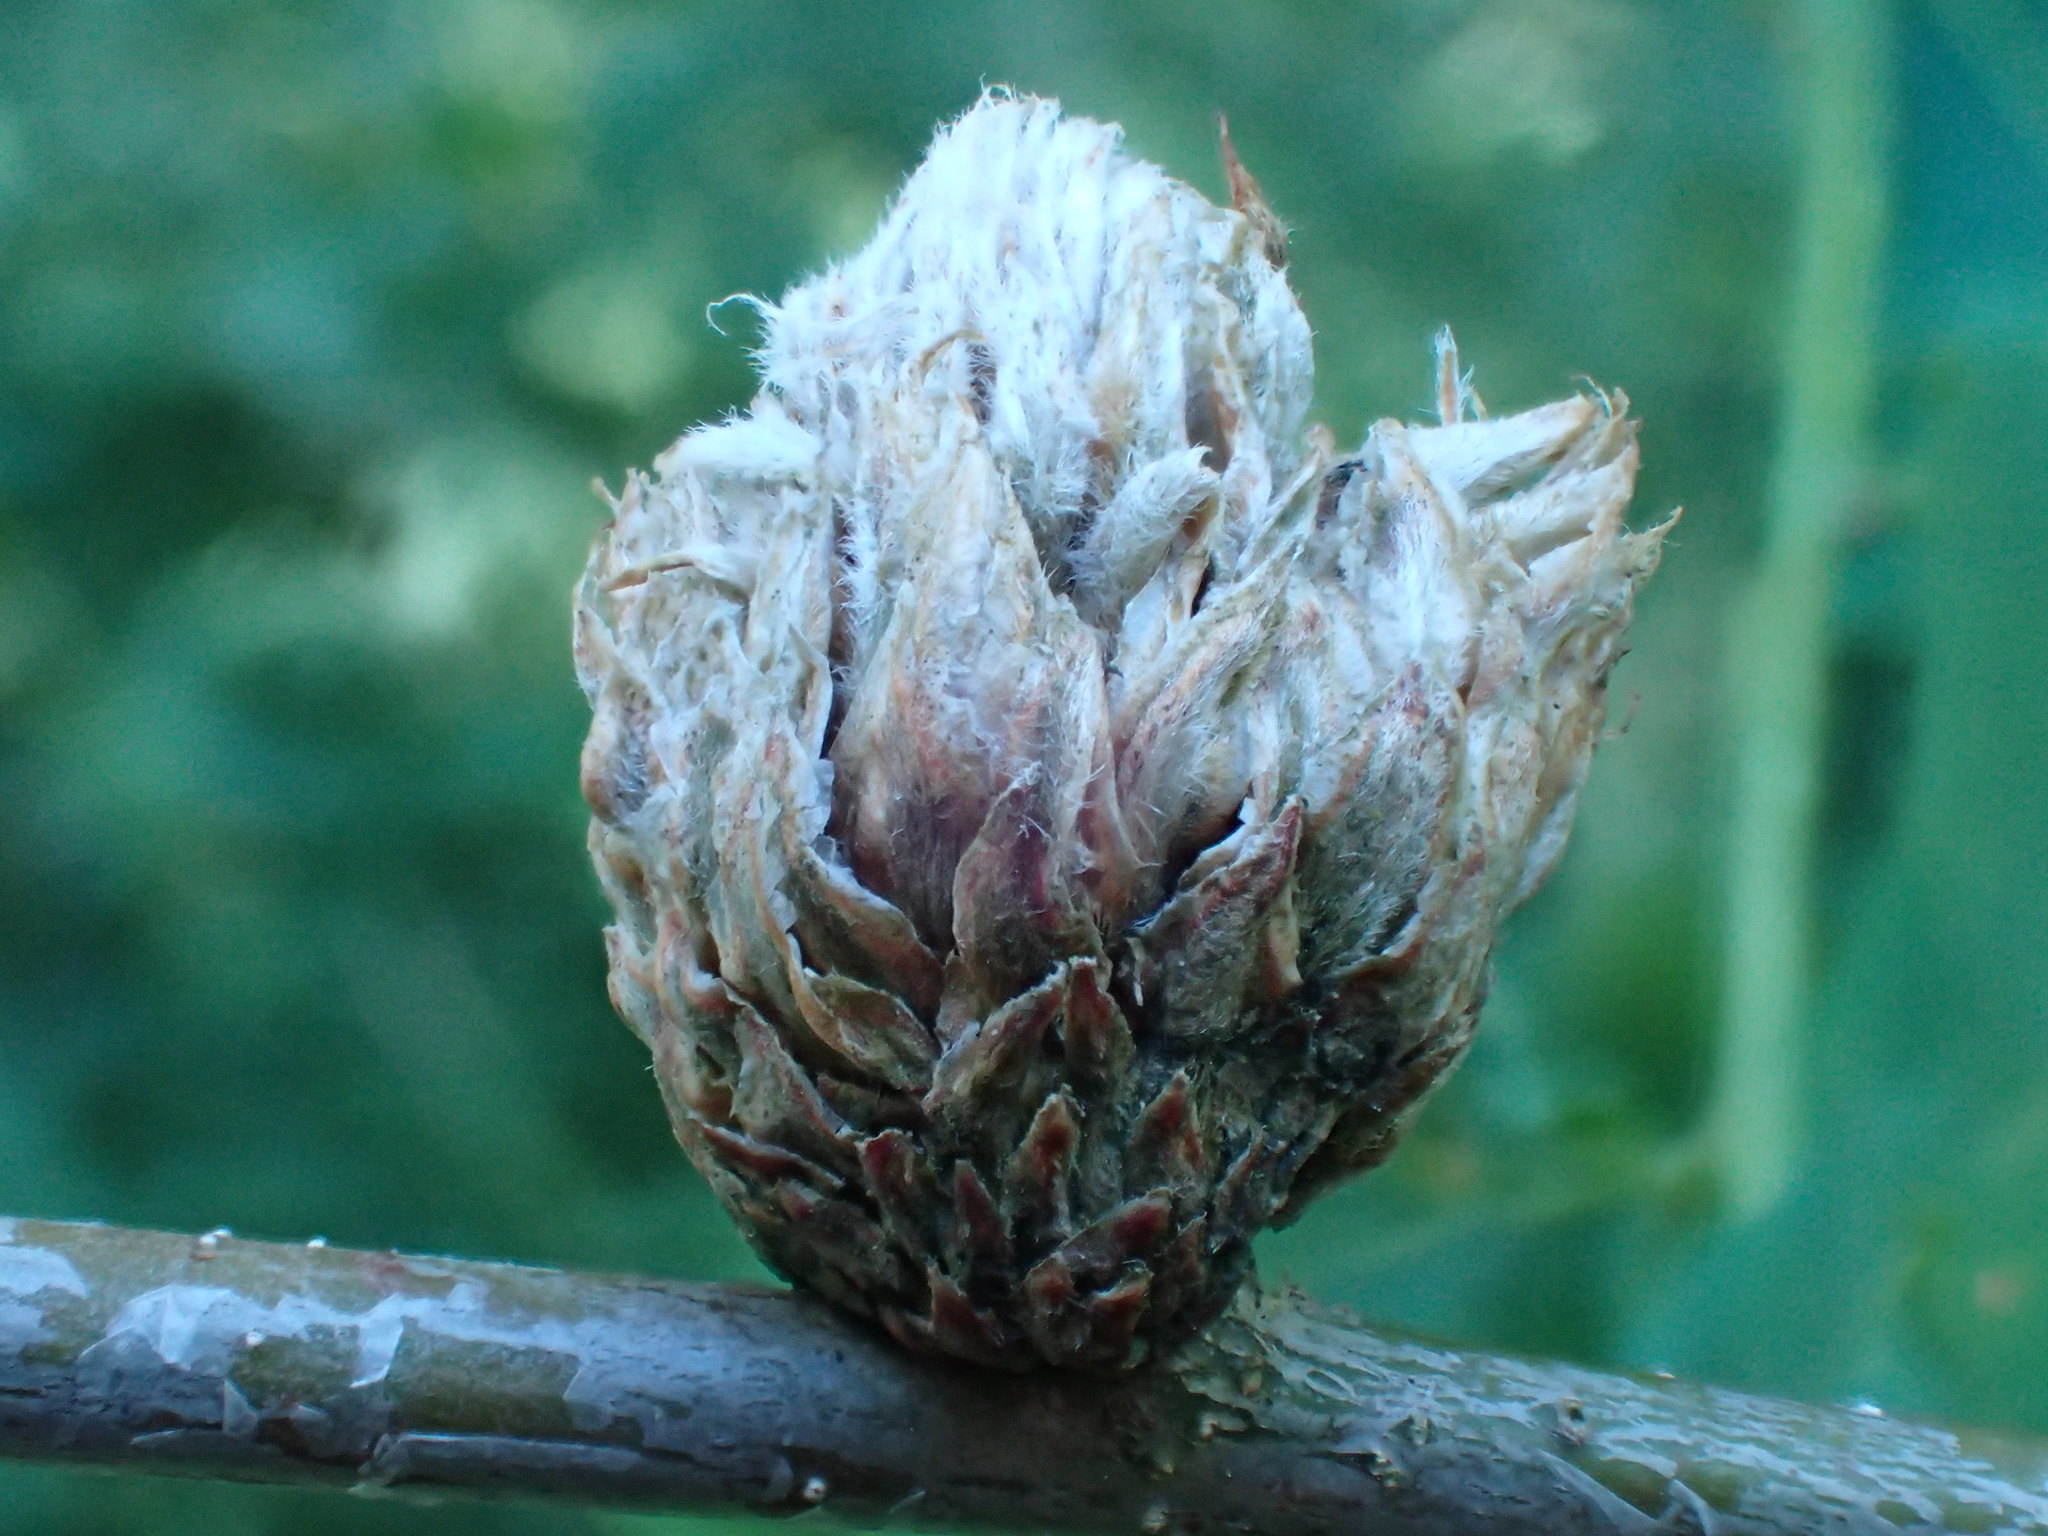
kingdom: Animalia
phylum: Arthropoda
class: Insecta
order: Hymenoptera
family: Cynipidae
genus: Andricus
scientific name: Andricus foecundatrix
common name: Artichoke gall
